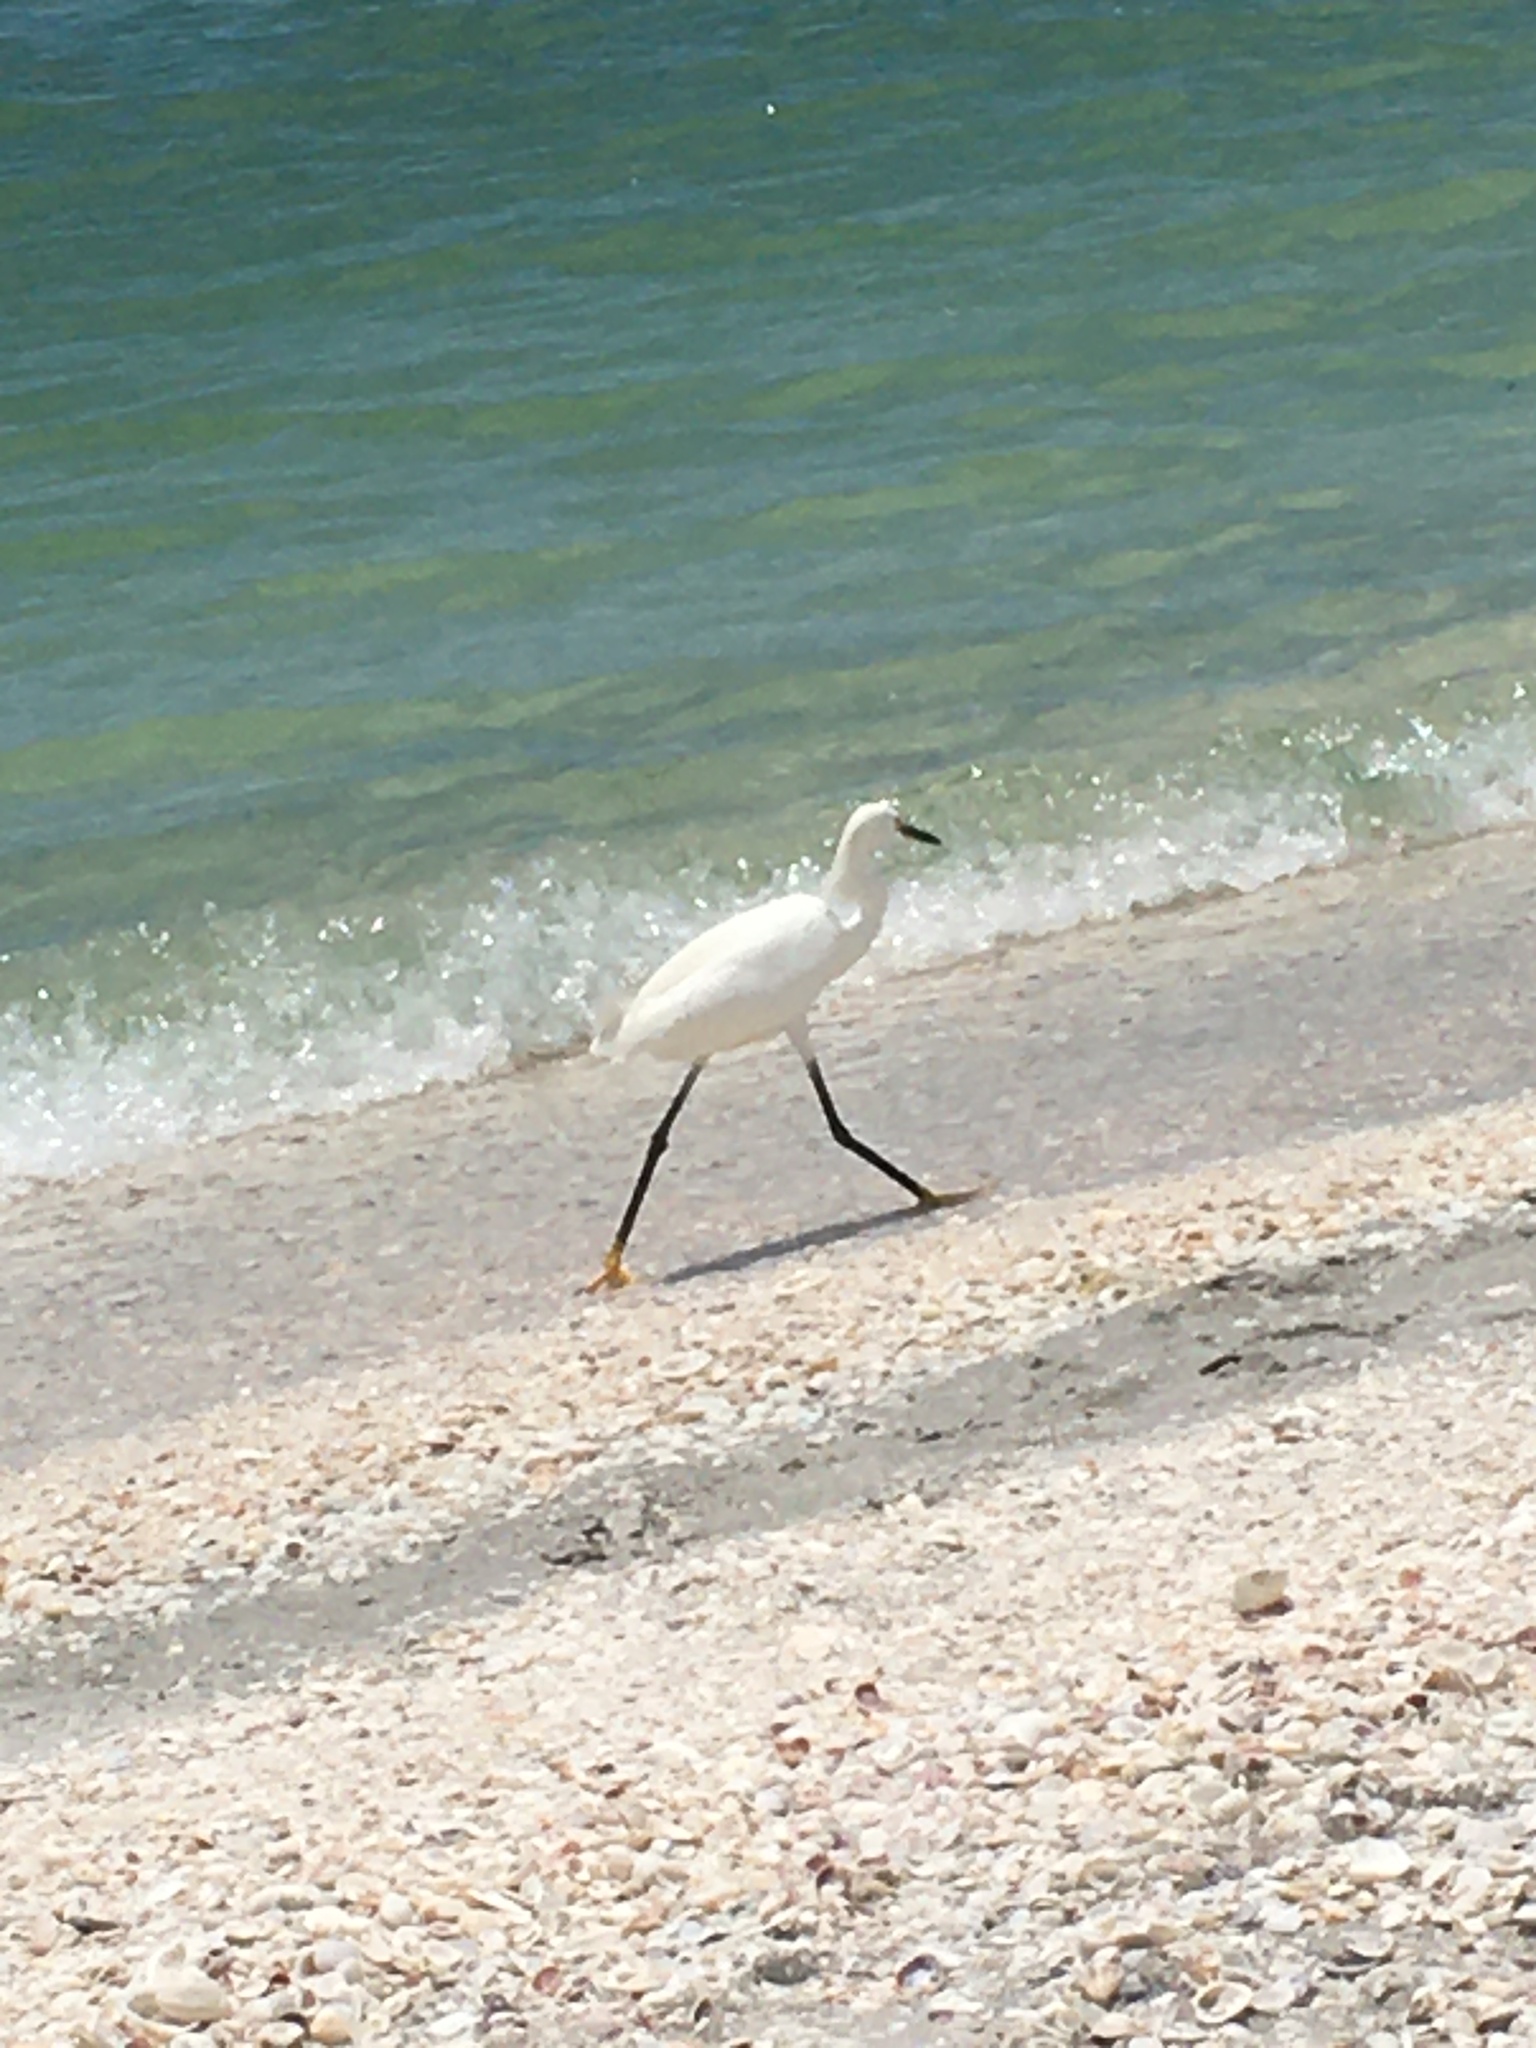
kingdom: Animalia
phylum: Chordata
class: Aves
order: Pelecaniformes
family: Ardeidae
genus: Egretta
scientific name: Egretta thula
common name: Snowy egret
